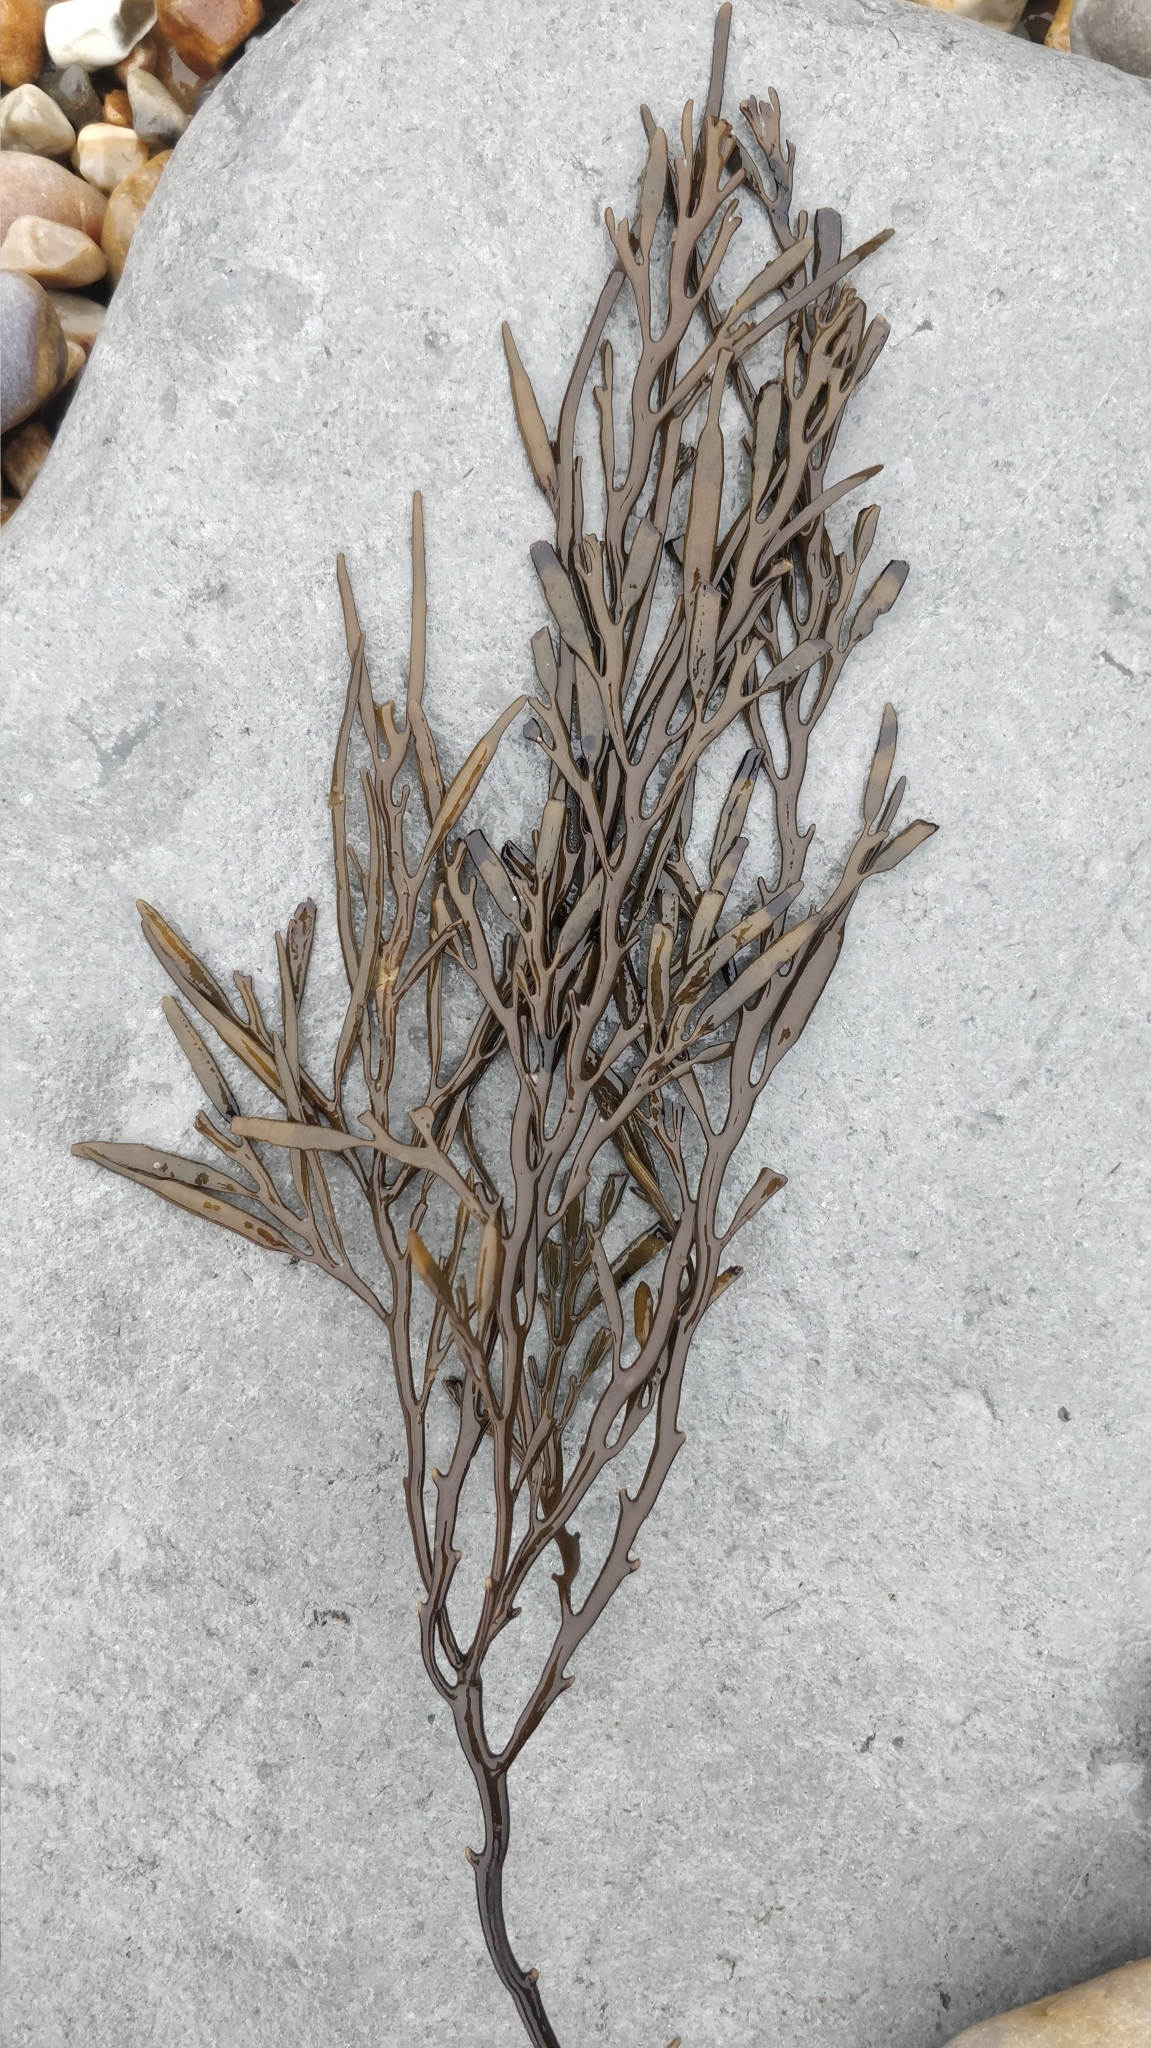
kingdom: Chromista
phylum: Ochrophyta
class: Phaeophyceae
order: Fucales
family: Sargassaceae
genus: Halidrys
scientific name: Halidrys siliquosa
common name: Sea oak
